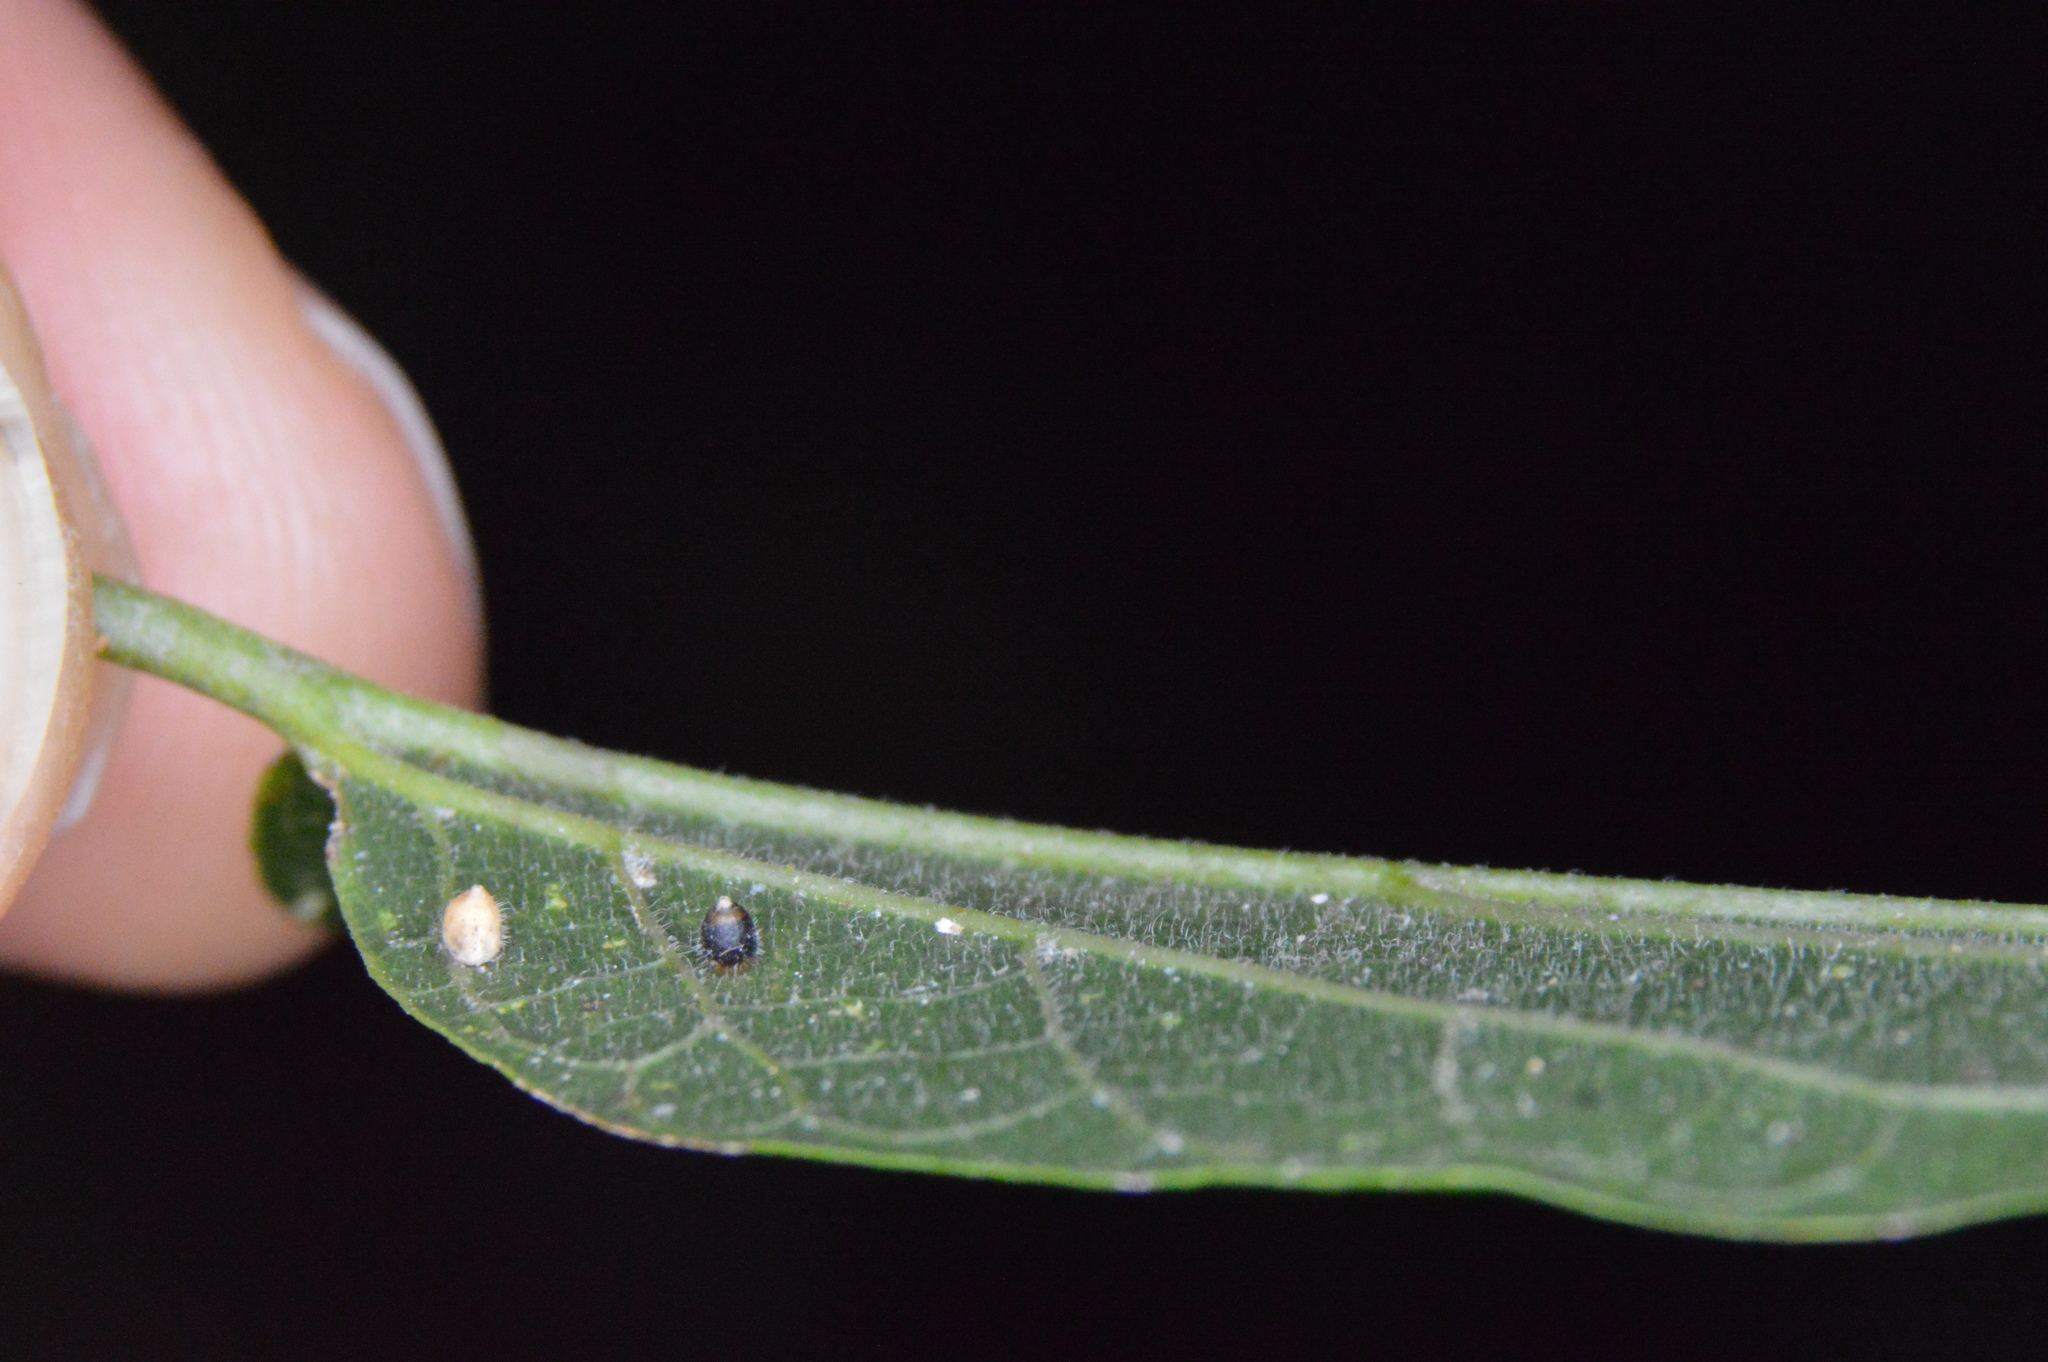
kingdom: Animalia
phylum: Arthropoda
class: Insecta
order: Diptera
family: Cecidomyiidae
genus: Celticecis
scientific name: Celticecis cupiformis
